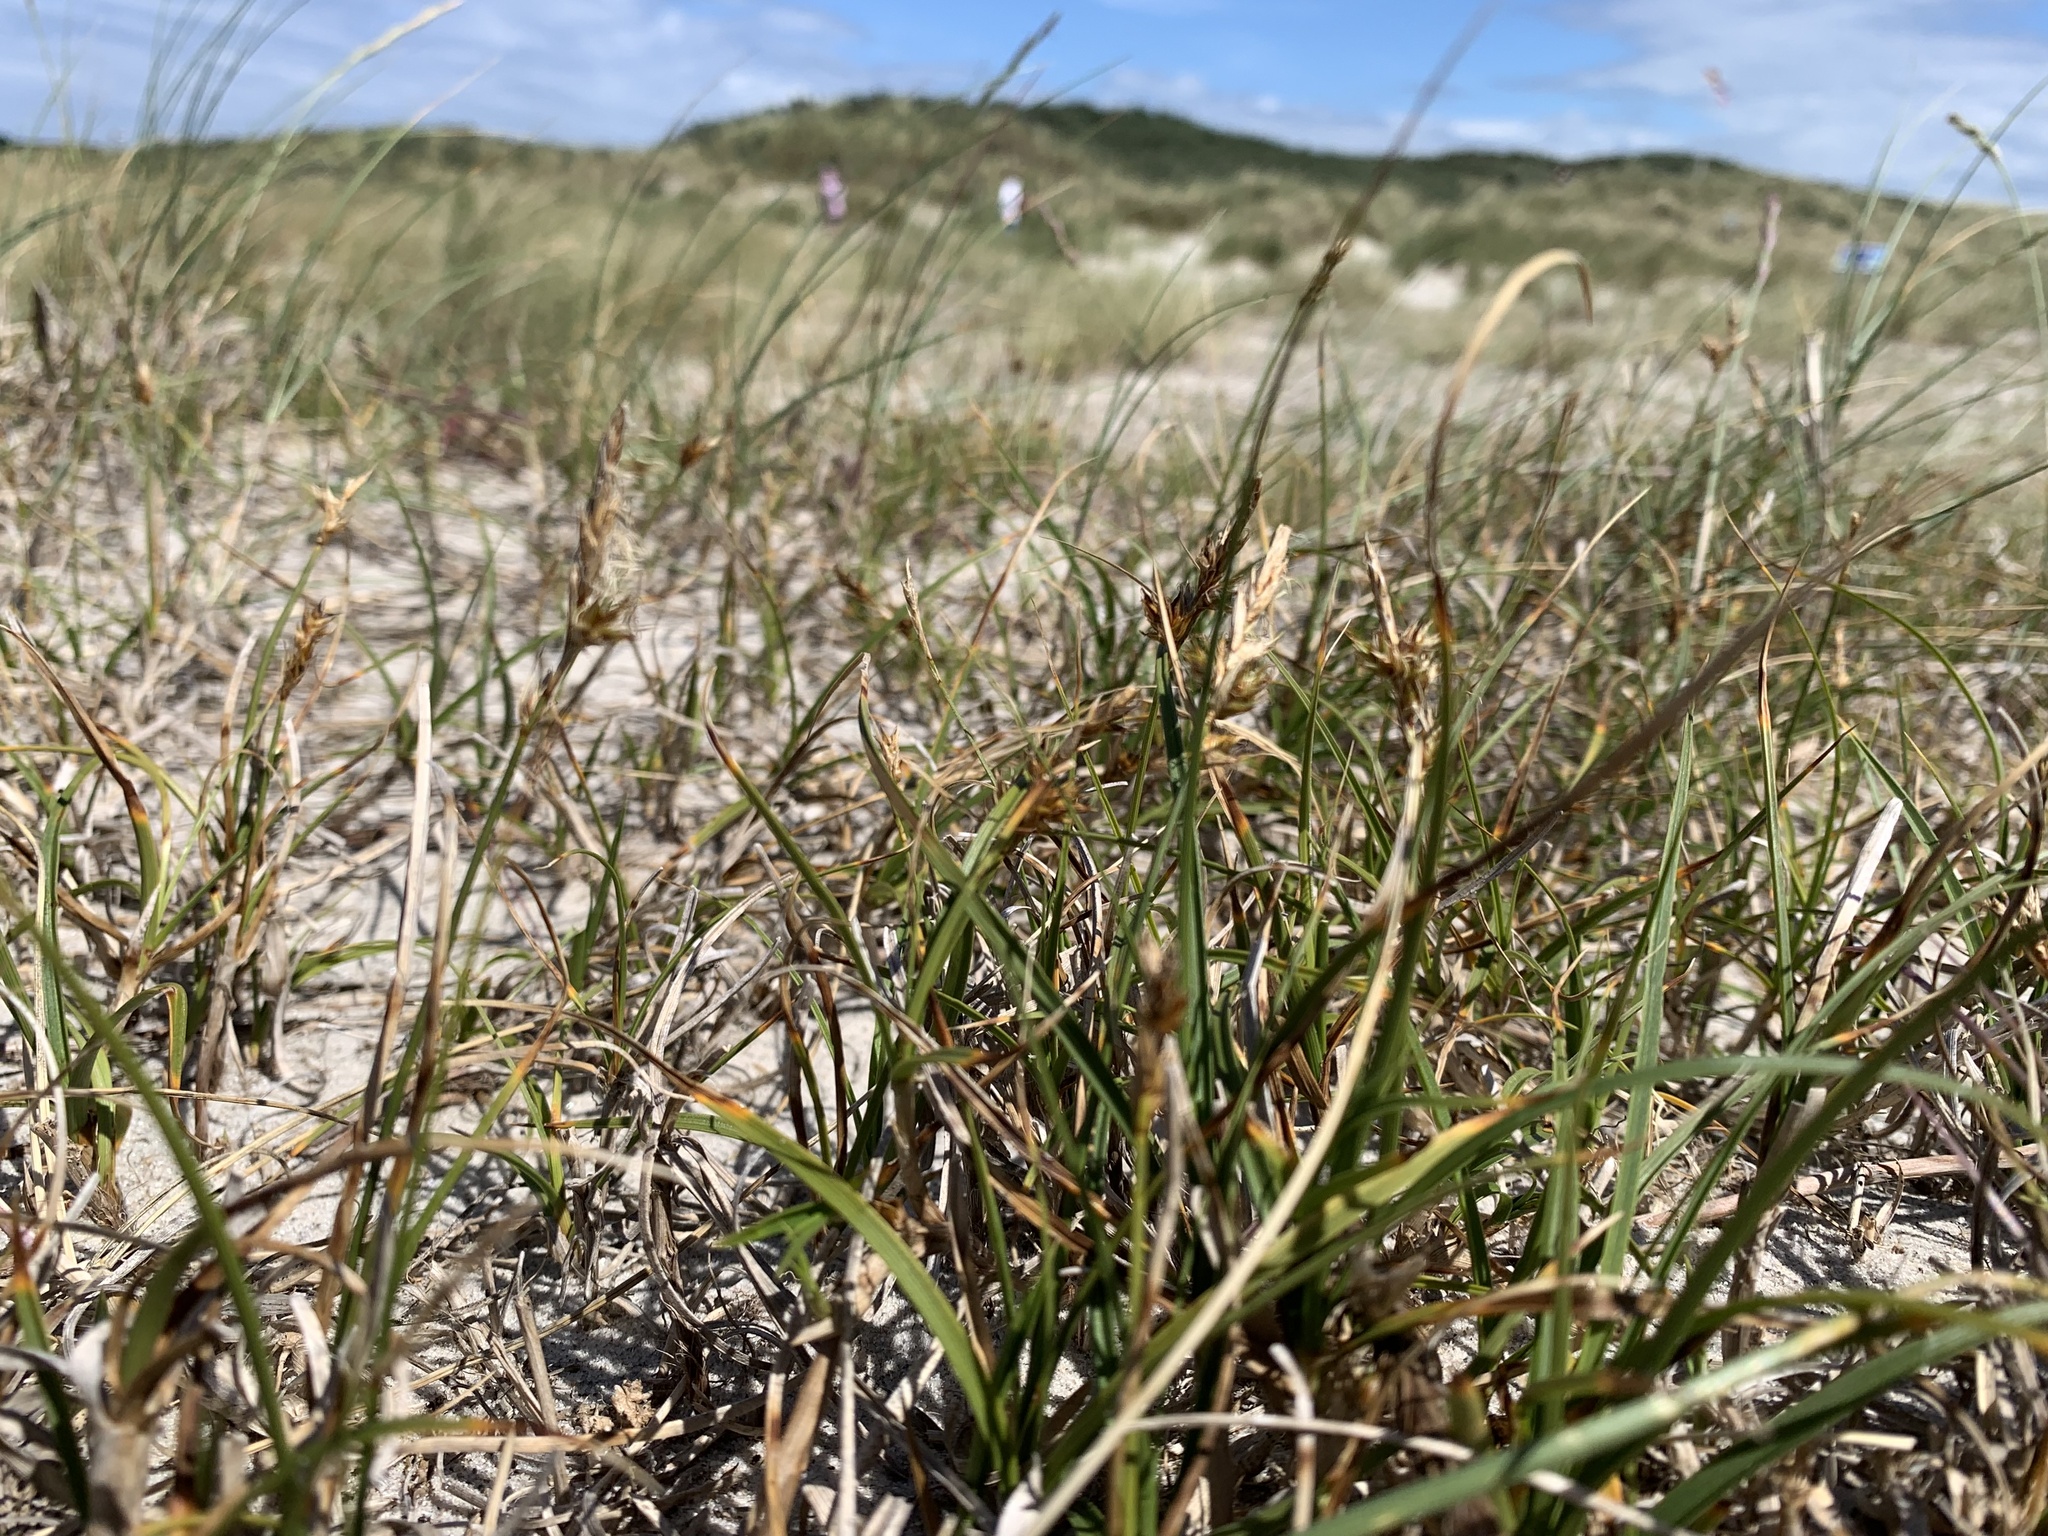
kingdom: Plantae
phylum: Tracheophyta
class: Liliopsida
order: Poales
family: Cyperaceae
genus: Carex
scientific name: Carex arenaria
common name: Sand sedge
